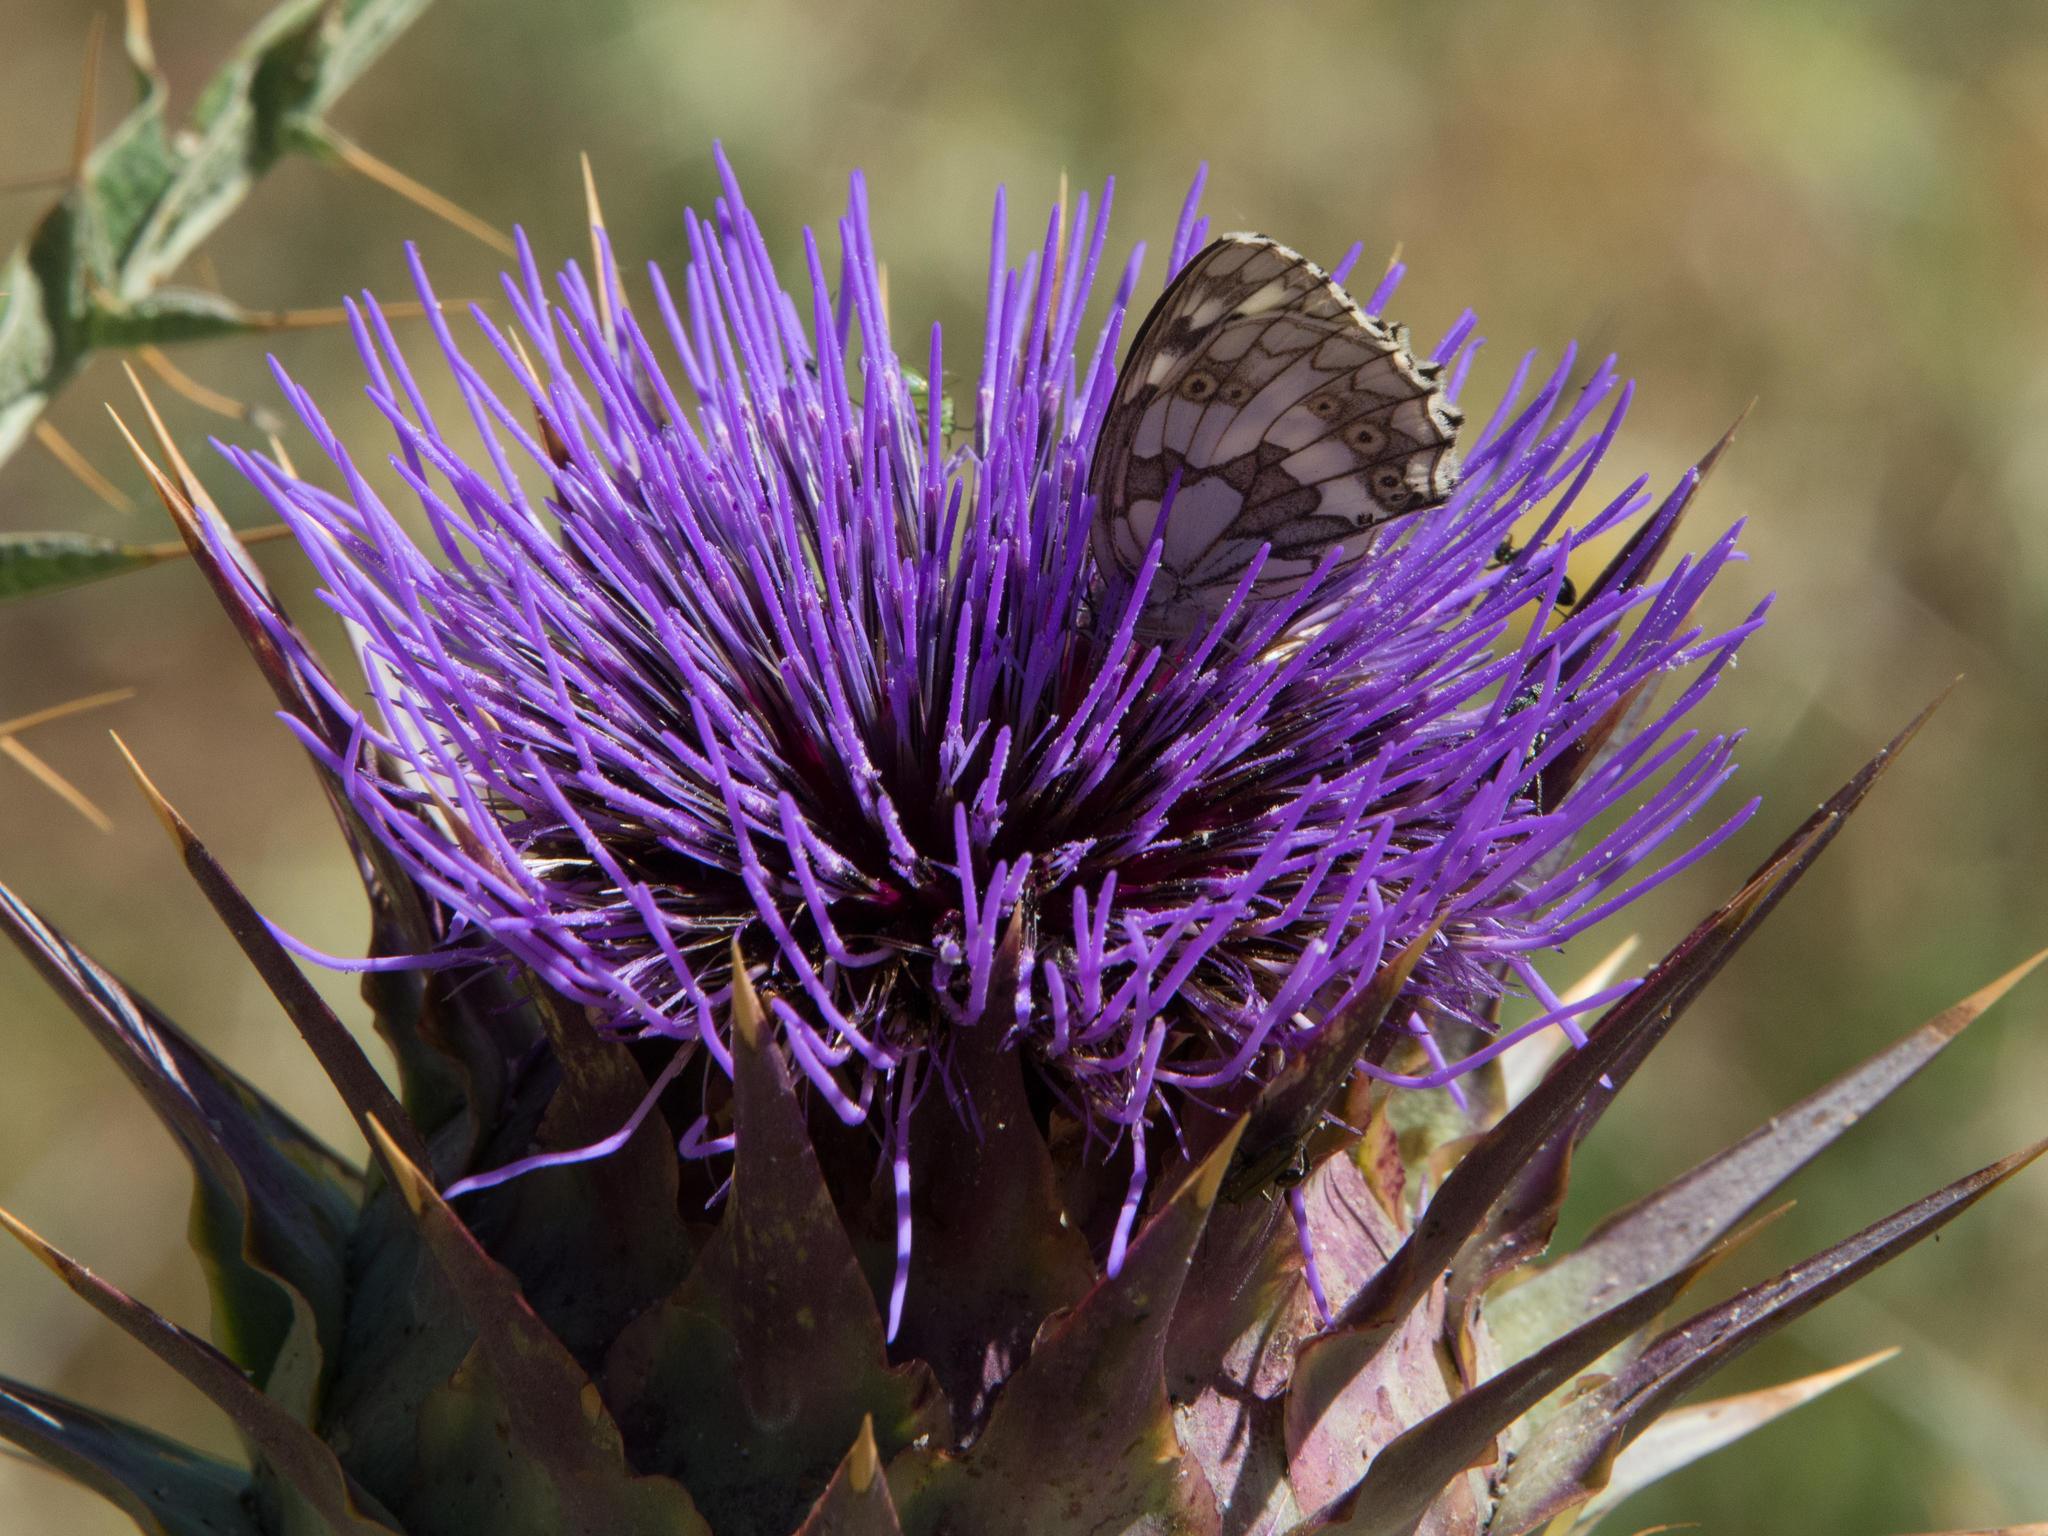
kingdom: Animalia
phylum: Arthropoda
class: Insecta
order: Lepidoptera
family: Nymphalidae
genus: Melanargia
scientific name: Melanargia galathea
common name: Marbled white
